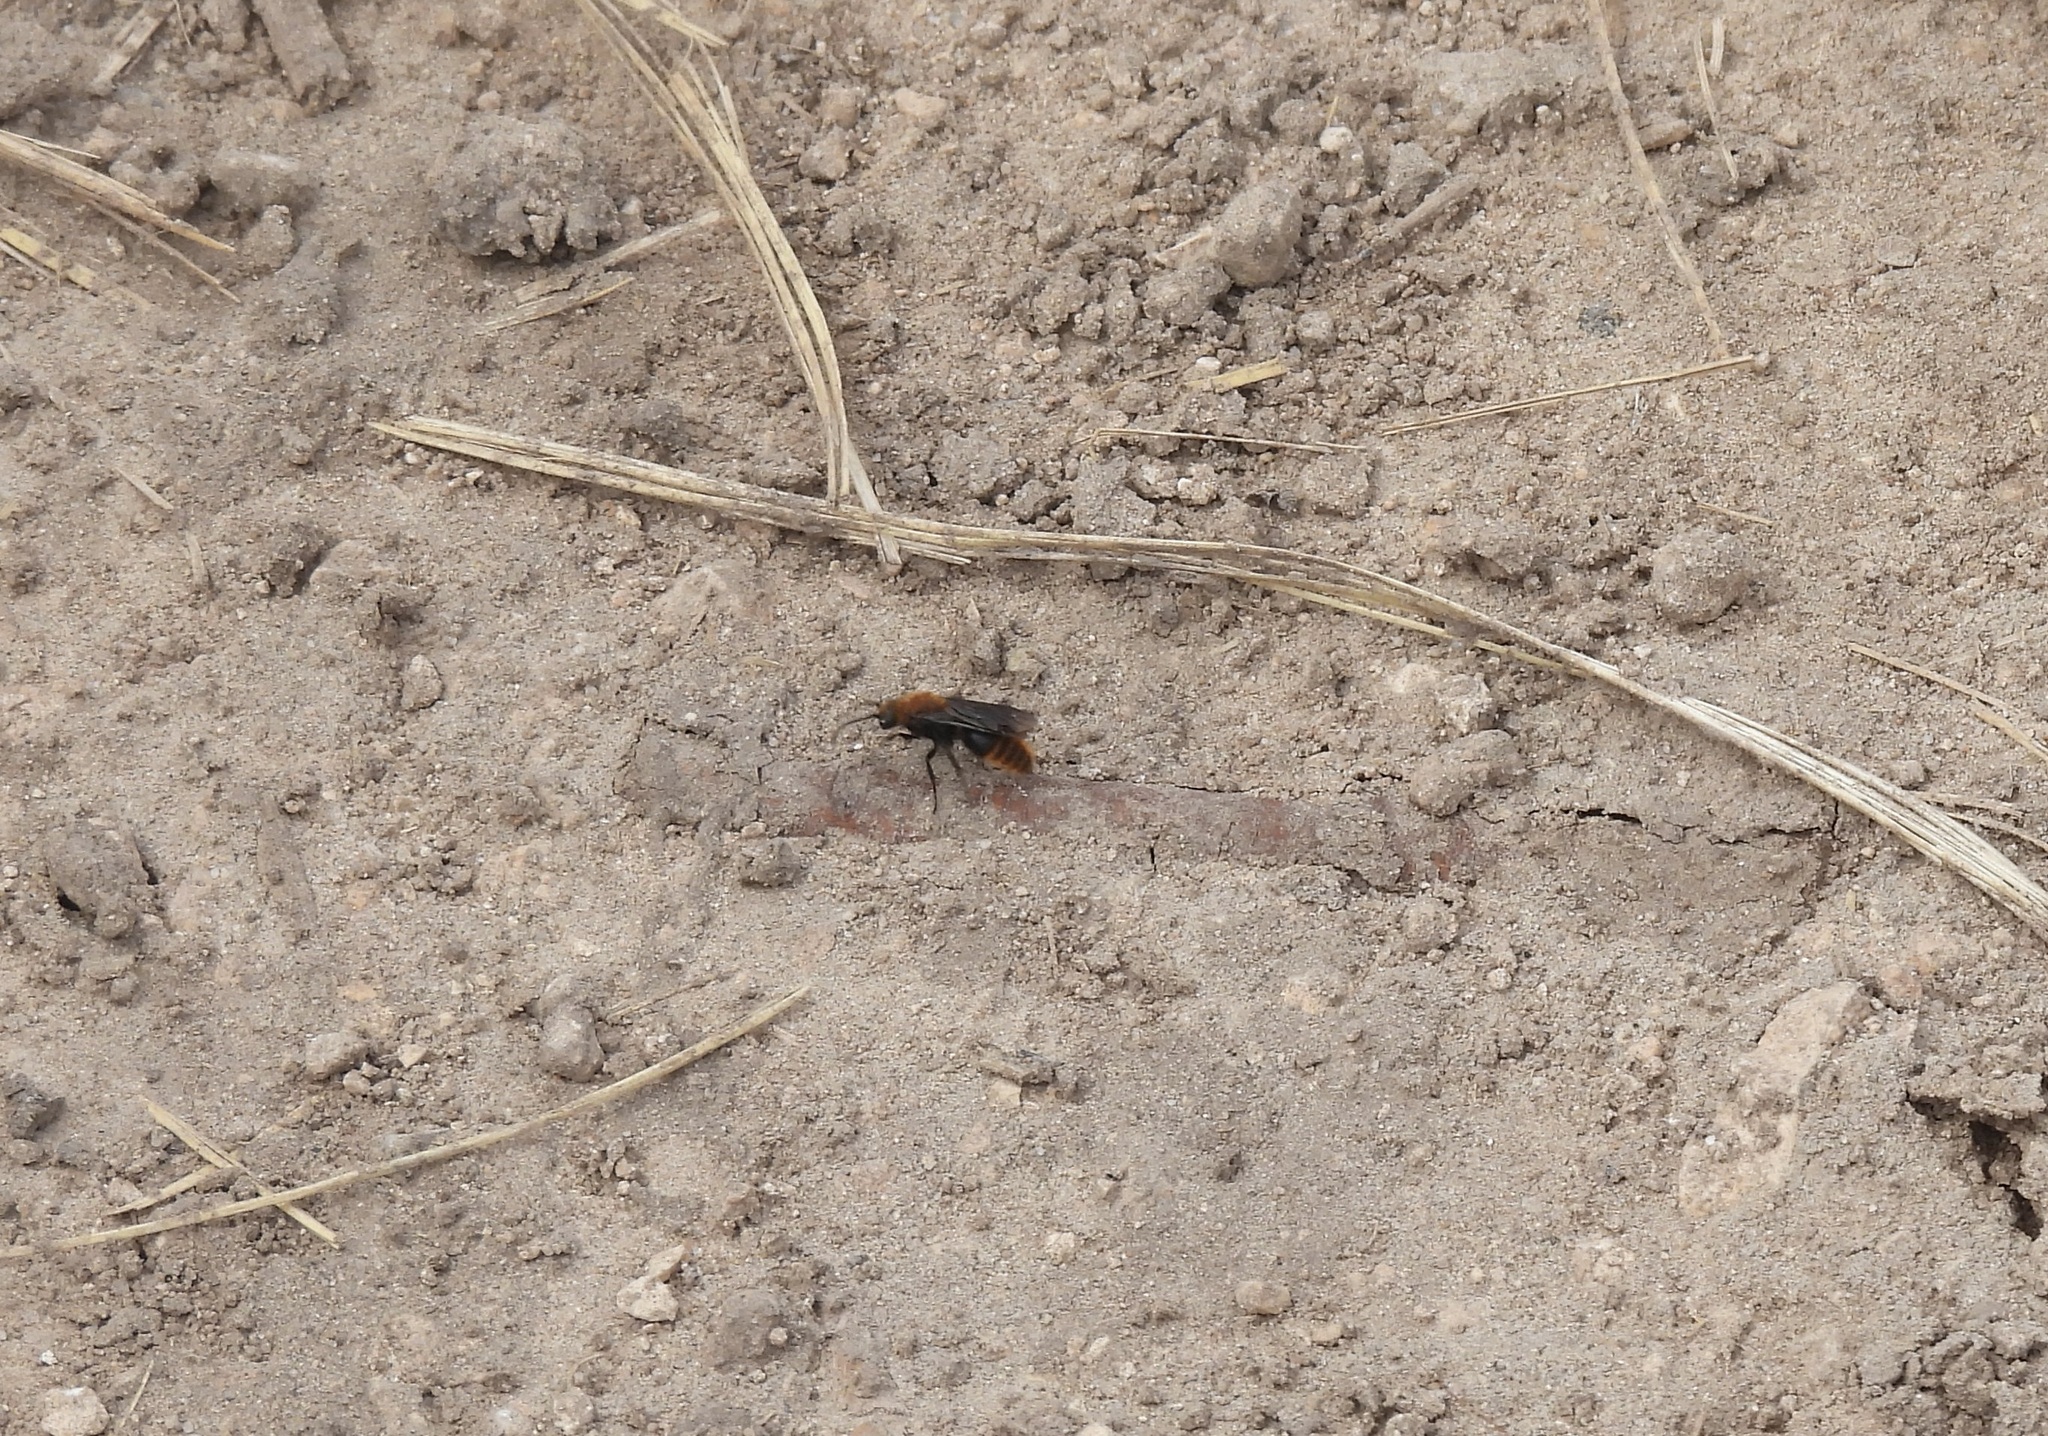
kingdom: Animalia
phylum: Arthropoda
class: Insecta
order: Hymenoptera
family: Mutillidae
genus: Dasymutilla
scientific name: Dasymutilla vestita
